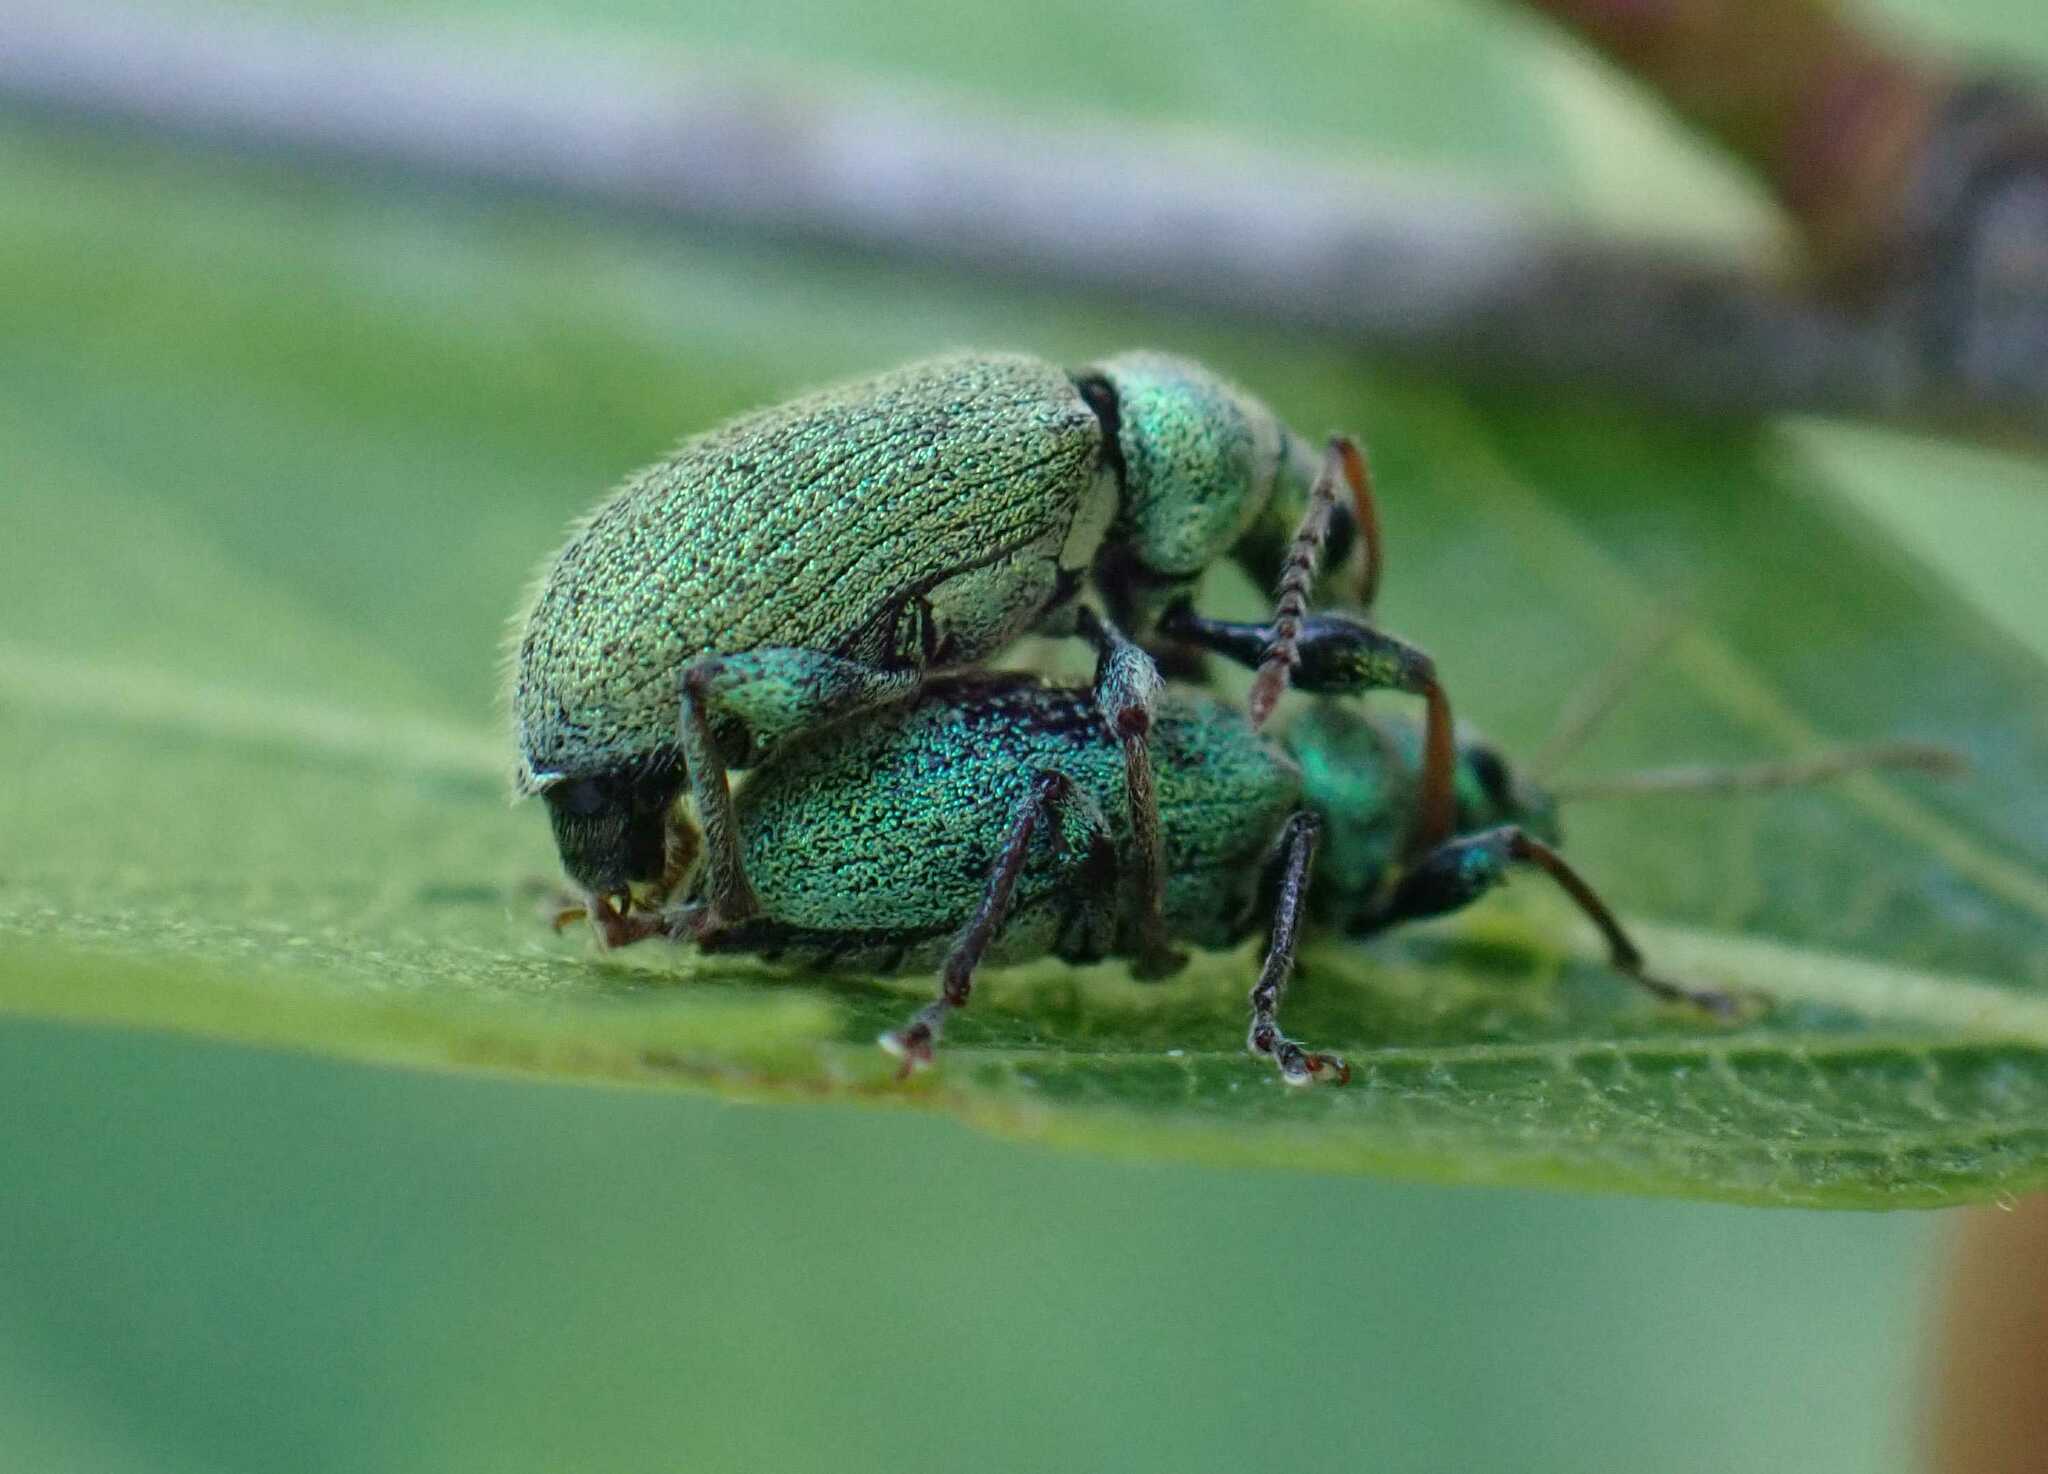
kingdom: Animalia
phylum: Arthropoda
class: Insecta
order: Coleoptera
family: Curculionidae
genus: Phyllobius
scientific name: Phyllobius argentatus
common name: Silver-green leaf weevil
